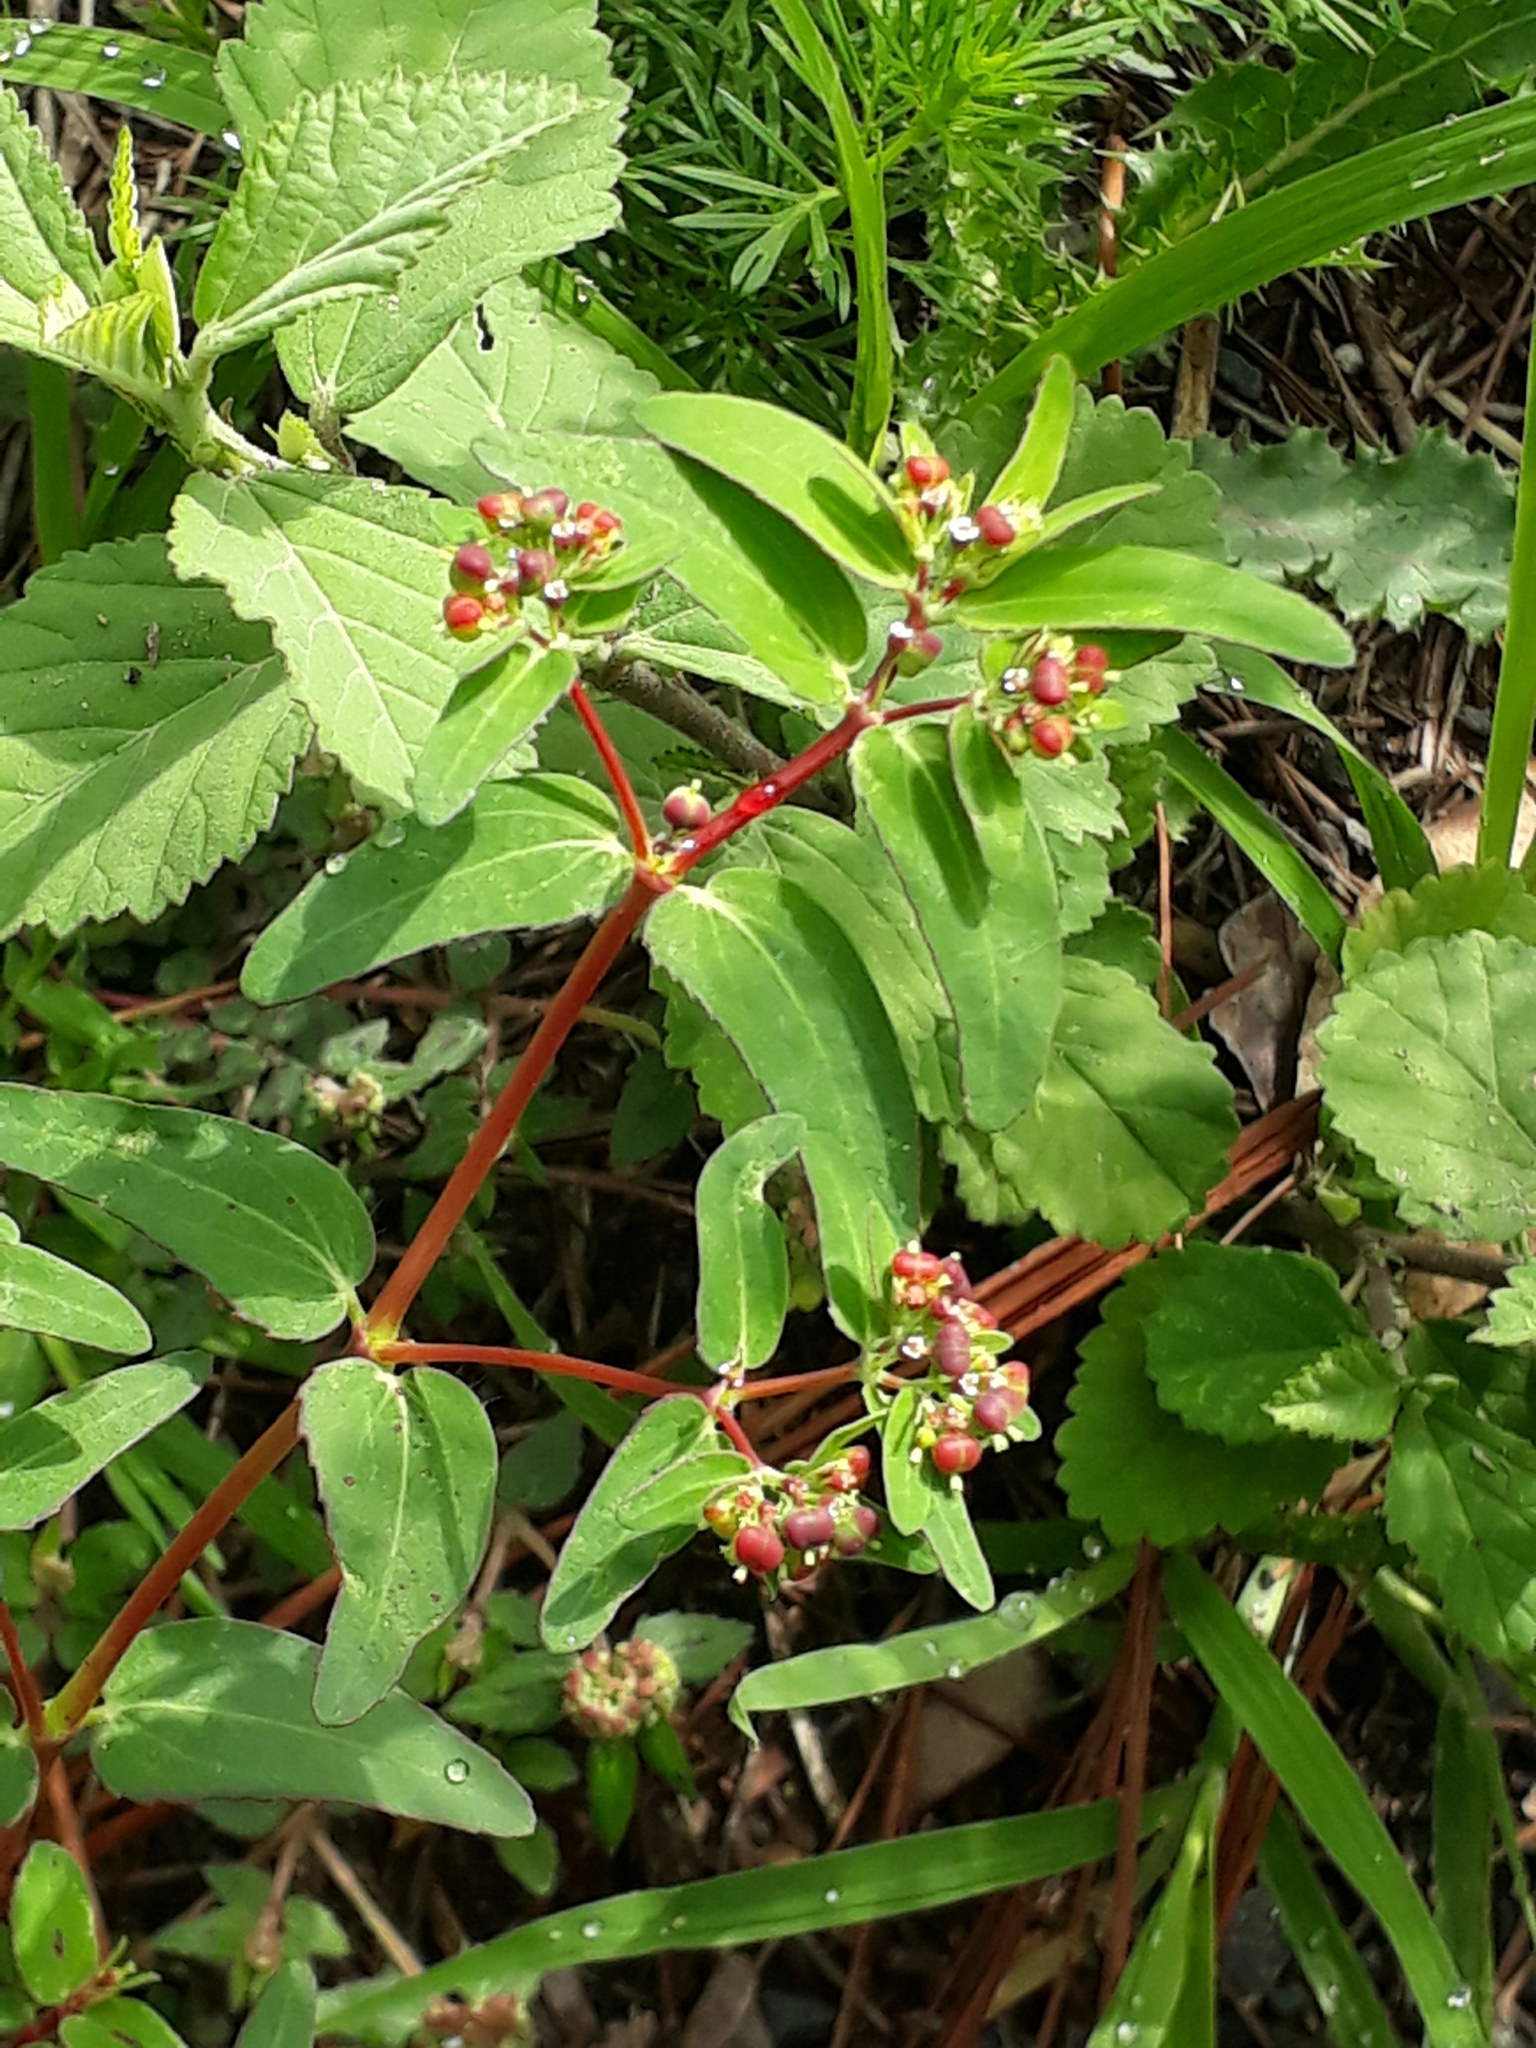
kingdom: Plantae
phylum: Tracheophyta
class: Magnoliopsida
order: Malpighiales
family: Euphorbiaceae
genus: Euphorbia
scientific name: Euphorbia nutans
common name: Eyebane
